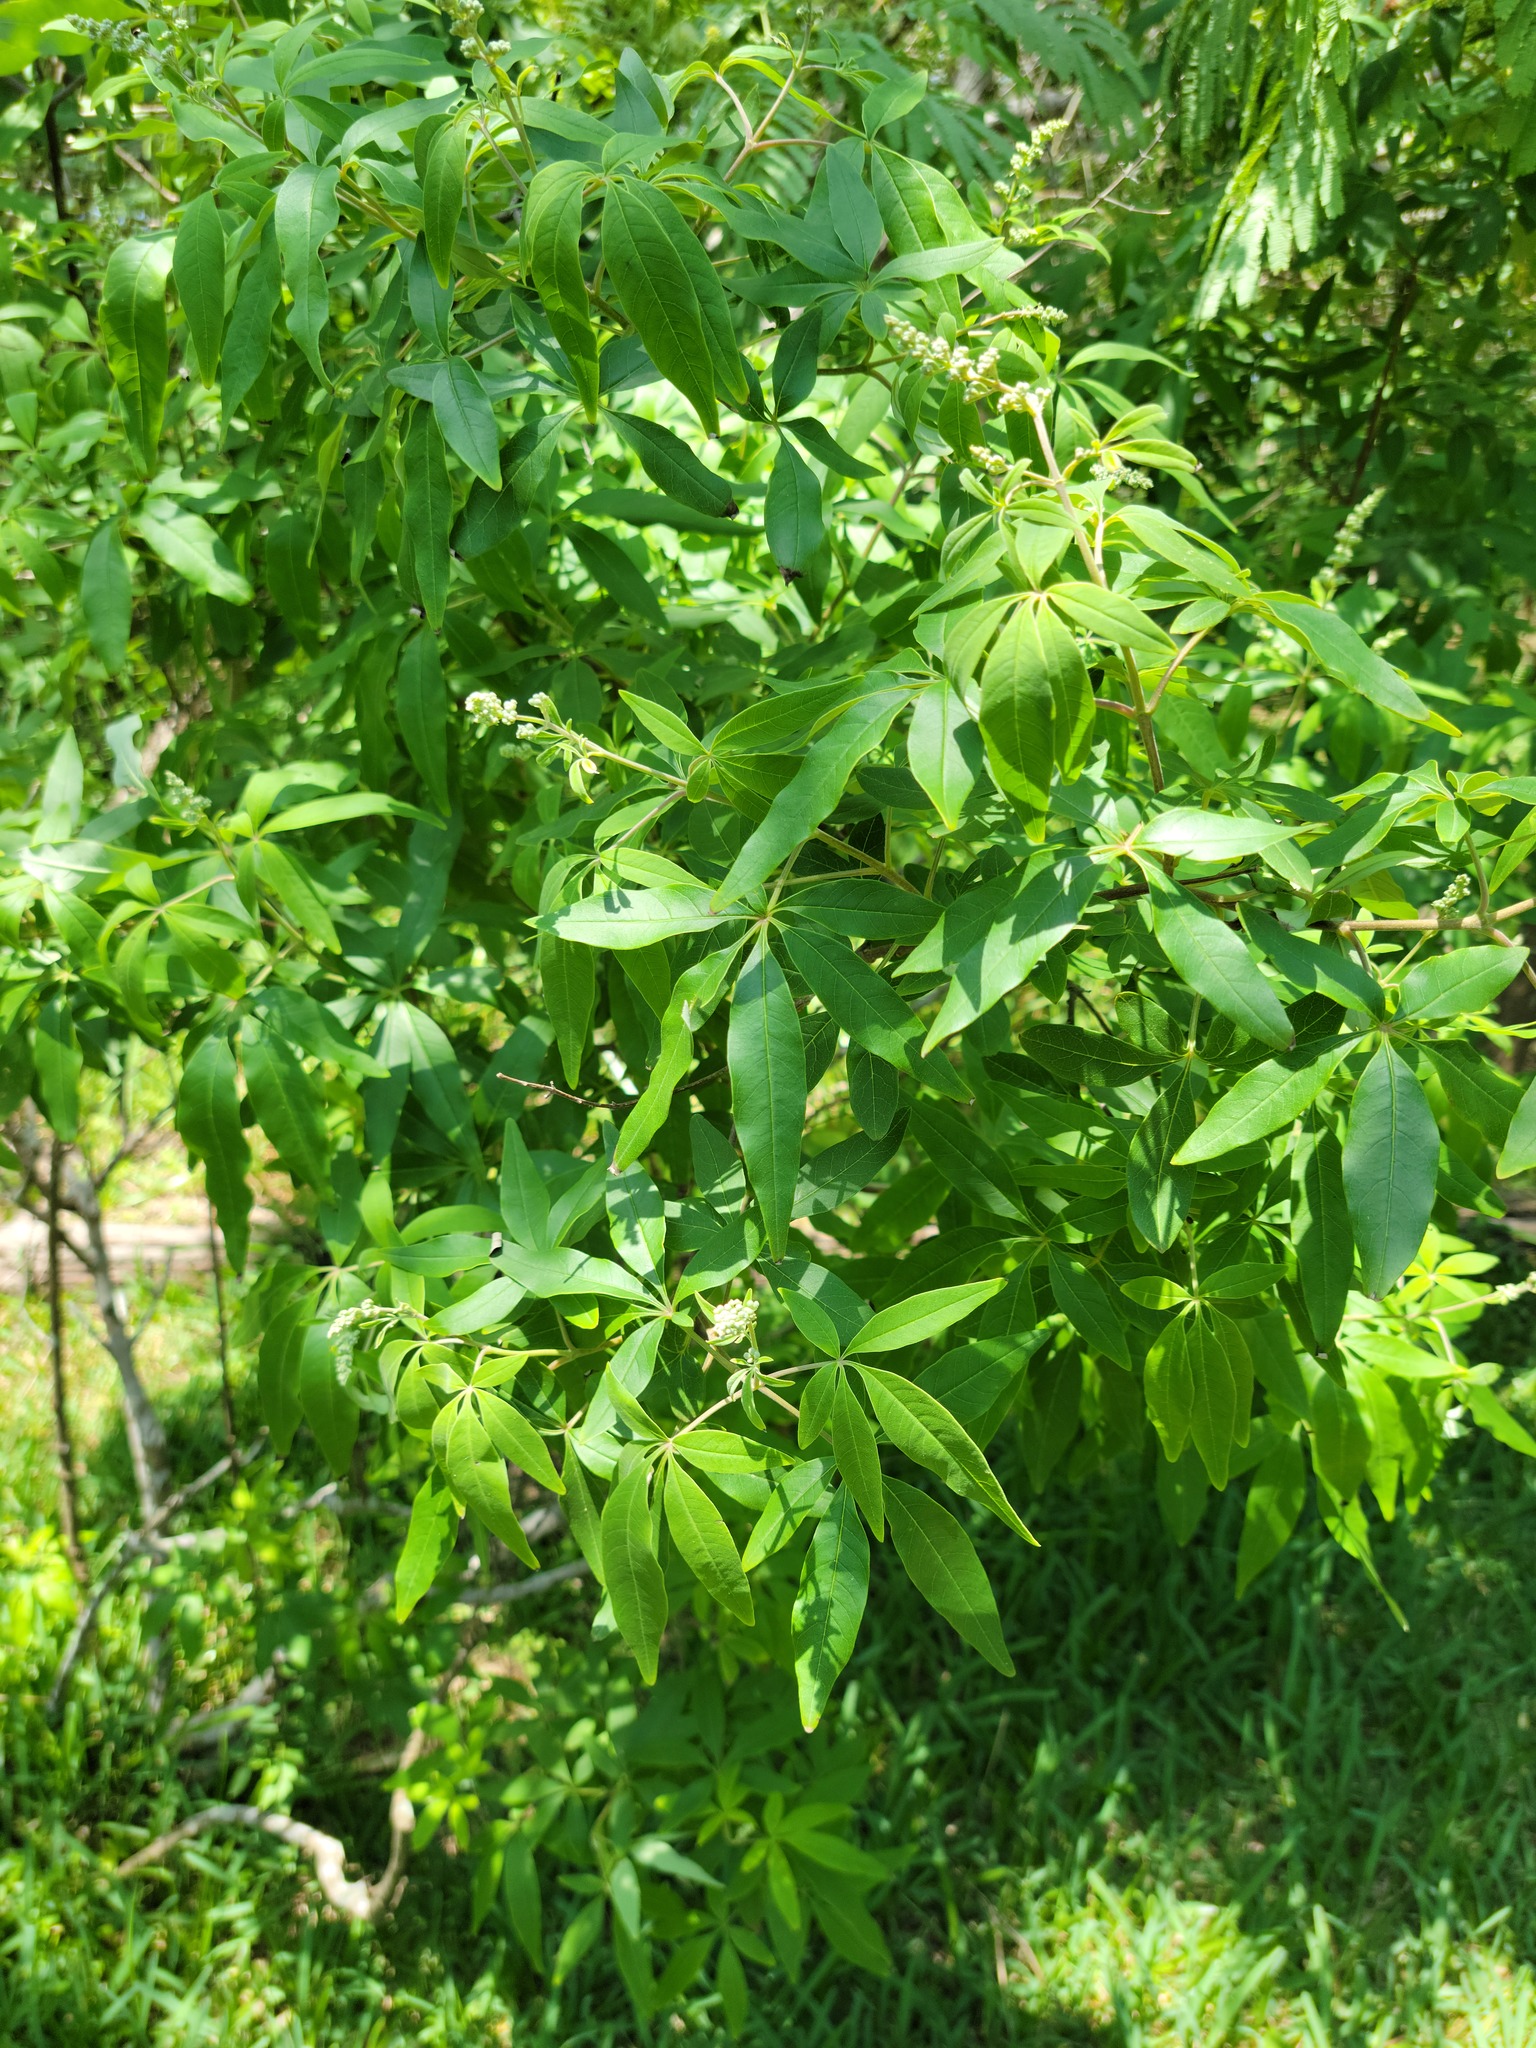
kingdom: Plantae
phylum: Tracheophyta
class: Magnoliopsida
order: Lamiales
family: Lamiaceae
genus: Vitex
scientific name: Vitex agnus-castus
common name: Chasteberry
